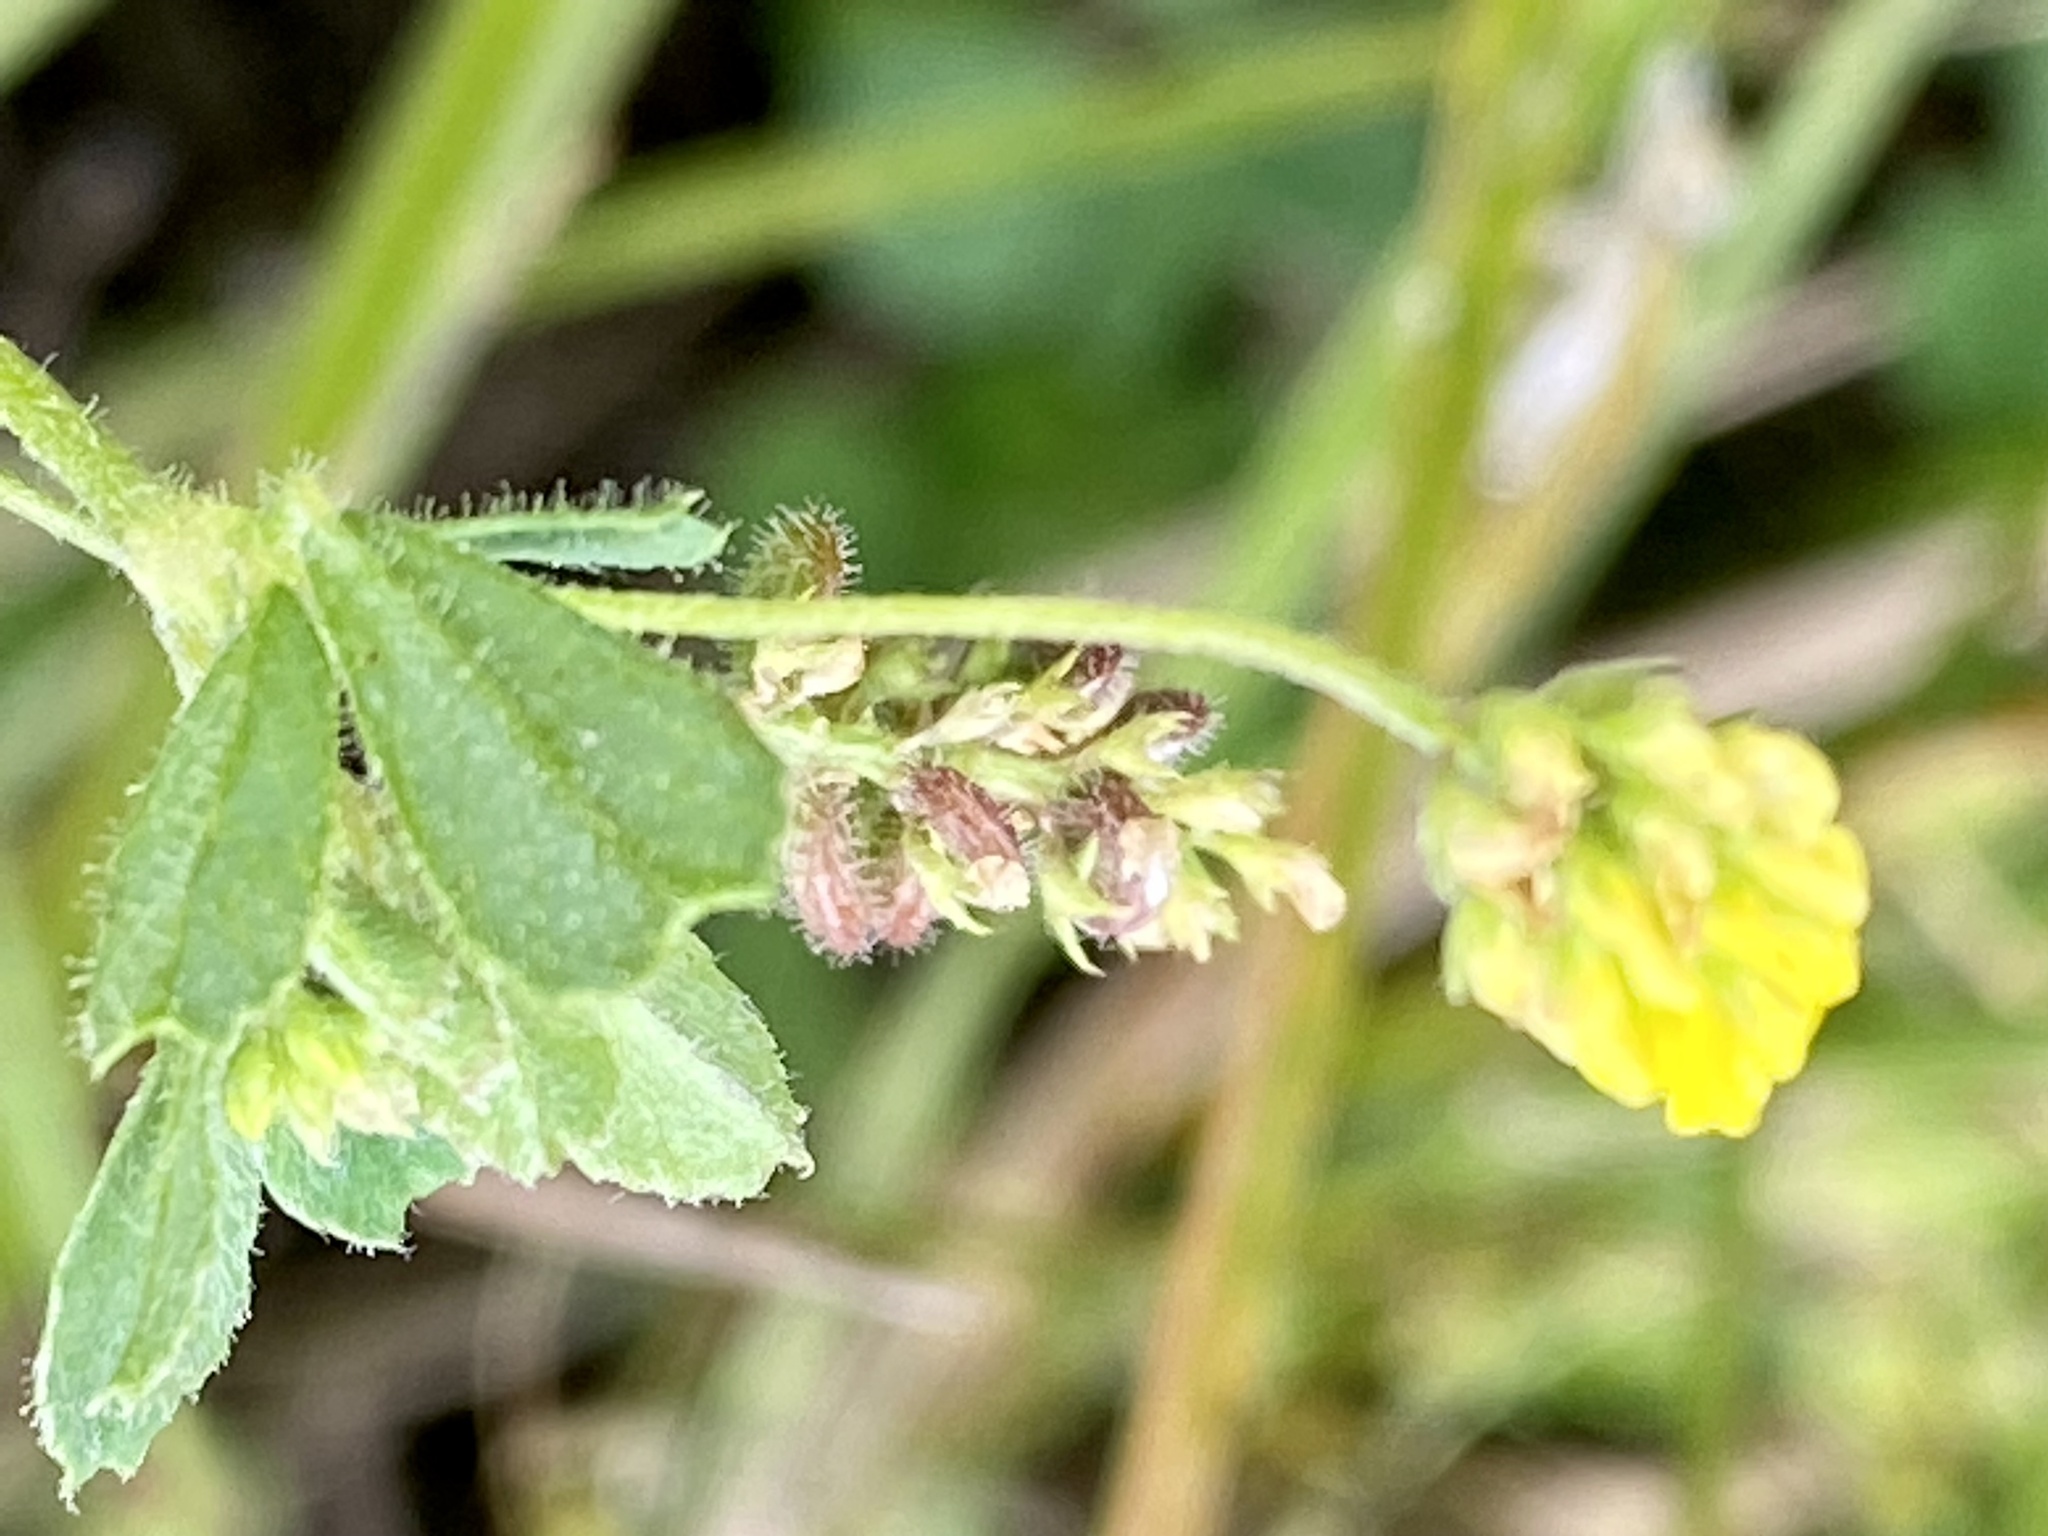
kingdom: Plantae
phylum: Tracheophyta
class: Magnoliopsida
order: Fabales
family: Fabaceae
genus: Medicago
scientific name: Medicago lupulina
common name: Black medick
